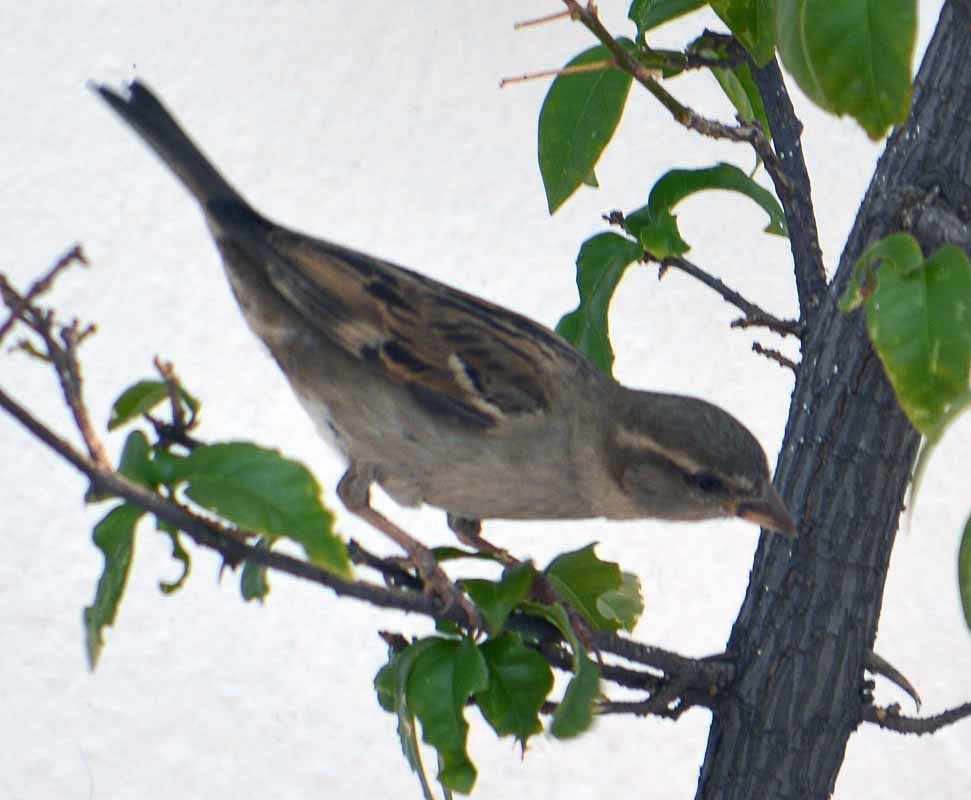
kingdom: Animalia
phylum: Chordata
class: Aves
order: Passeriformes
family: Passeridae
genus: Passer
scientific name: Passer domesticus
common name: House sparrow
